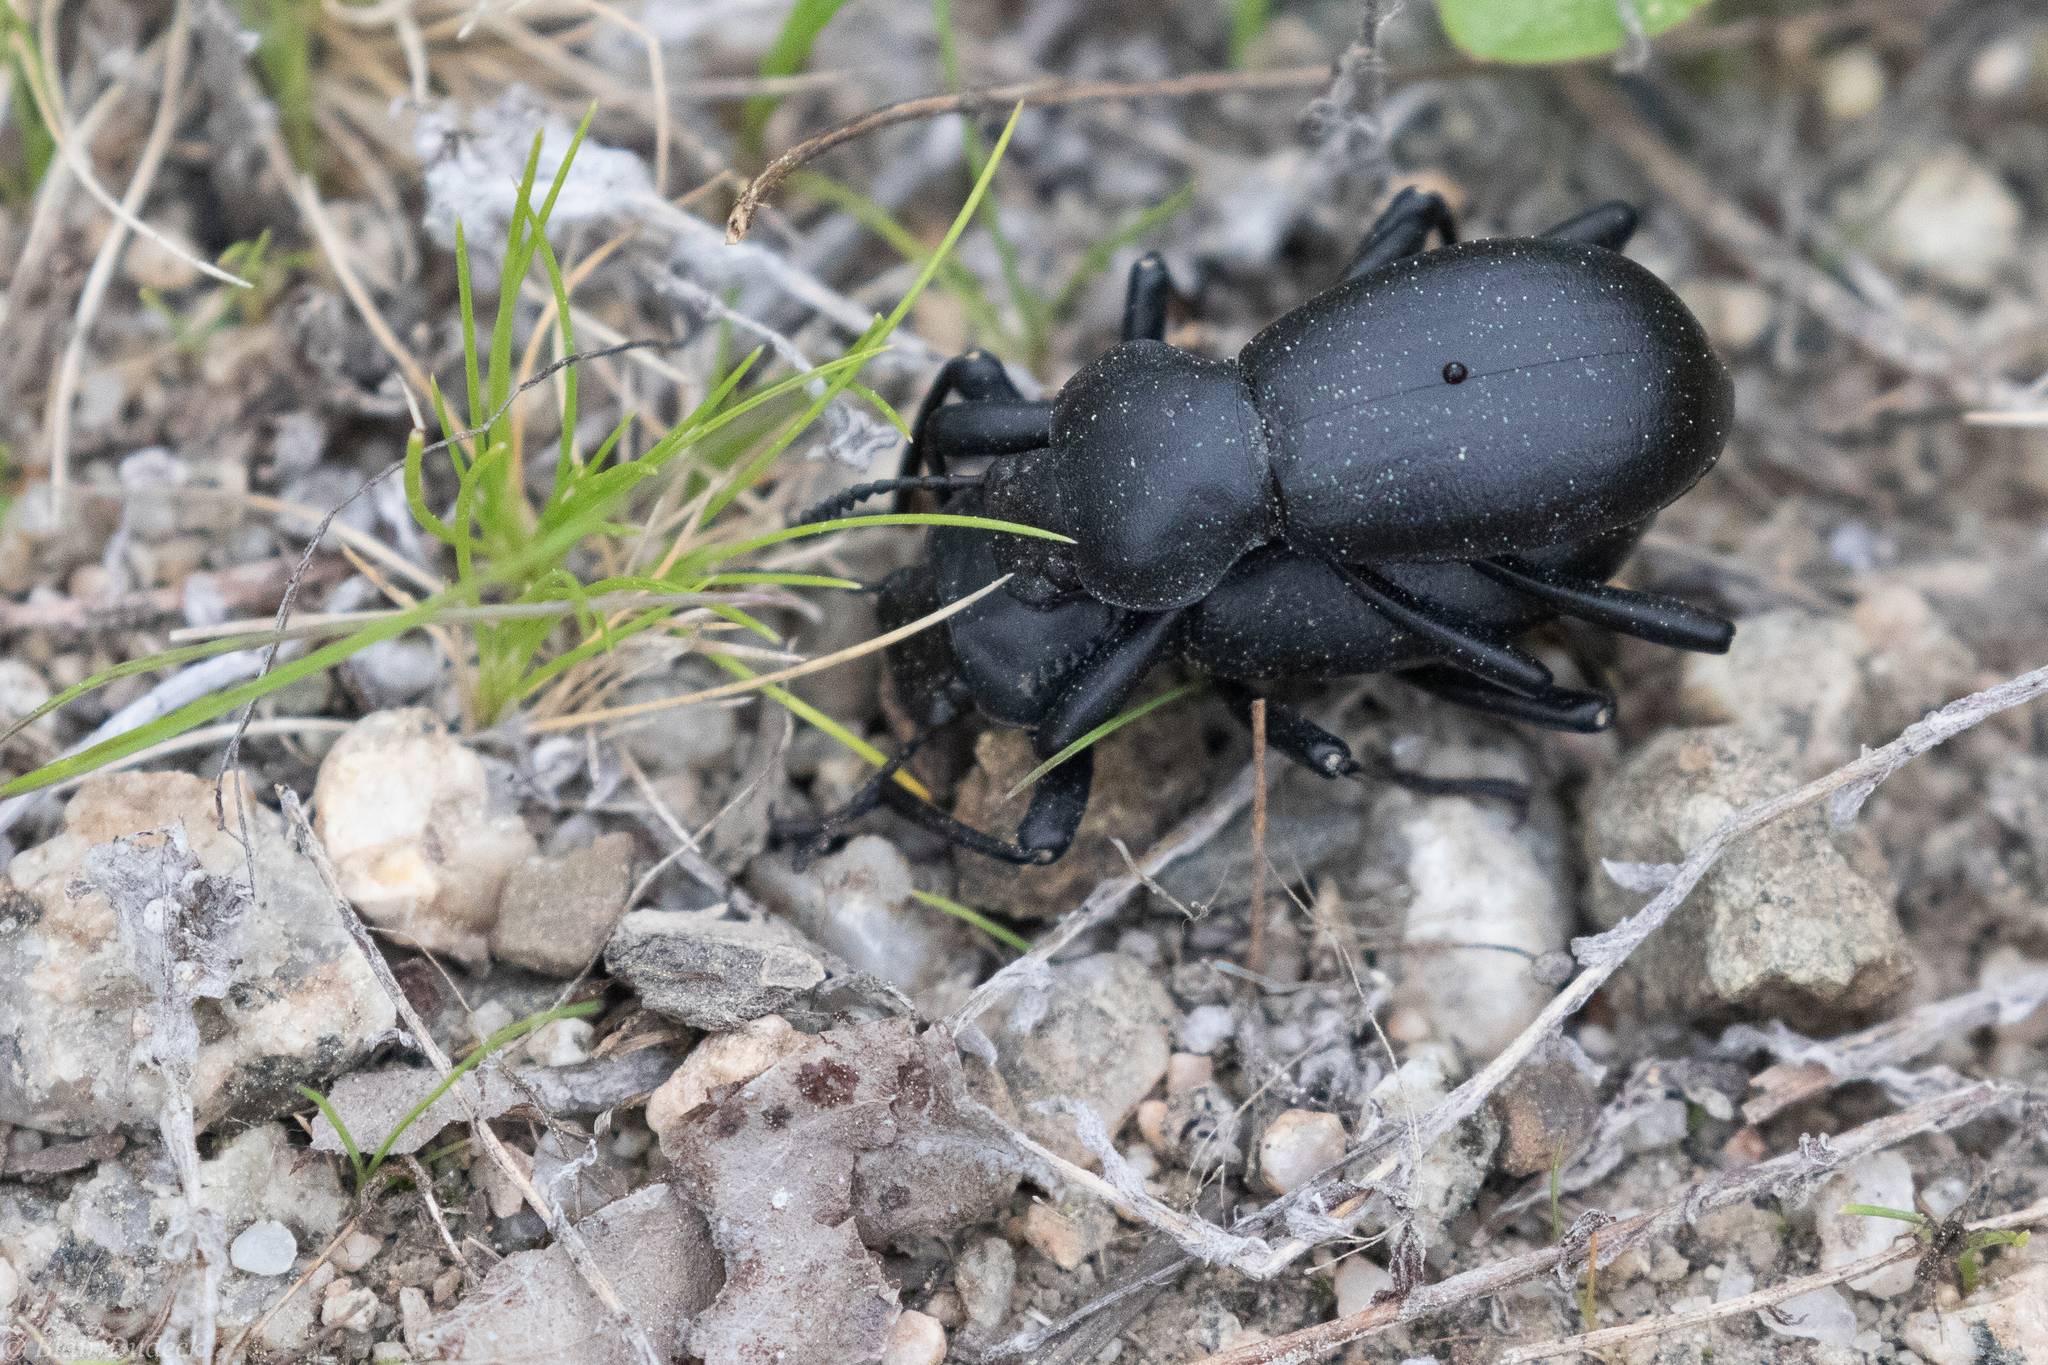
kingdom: Animalia
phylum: Arthropoda
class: Insecta
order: Coleoptera
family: Tenebrionidae
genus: Coelocnemis
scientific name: Coelocnemis dilaticollis
